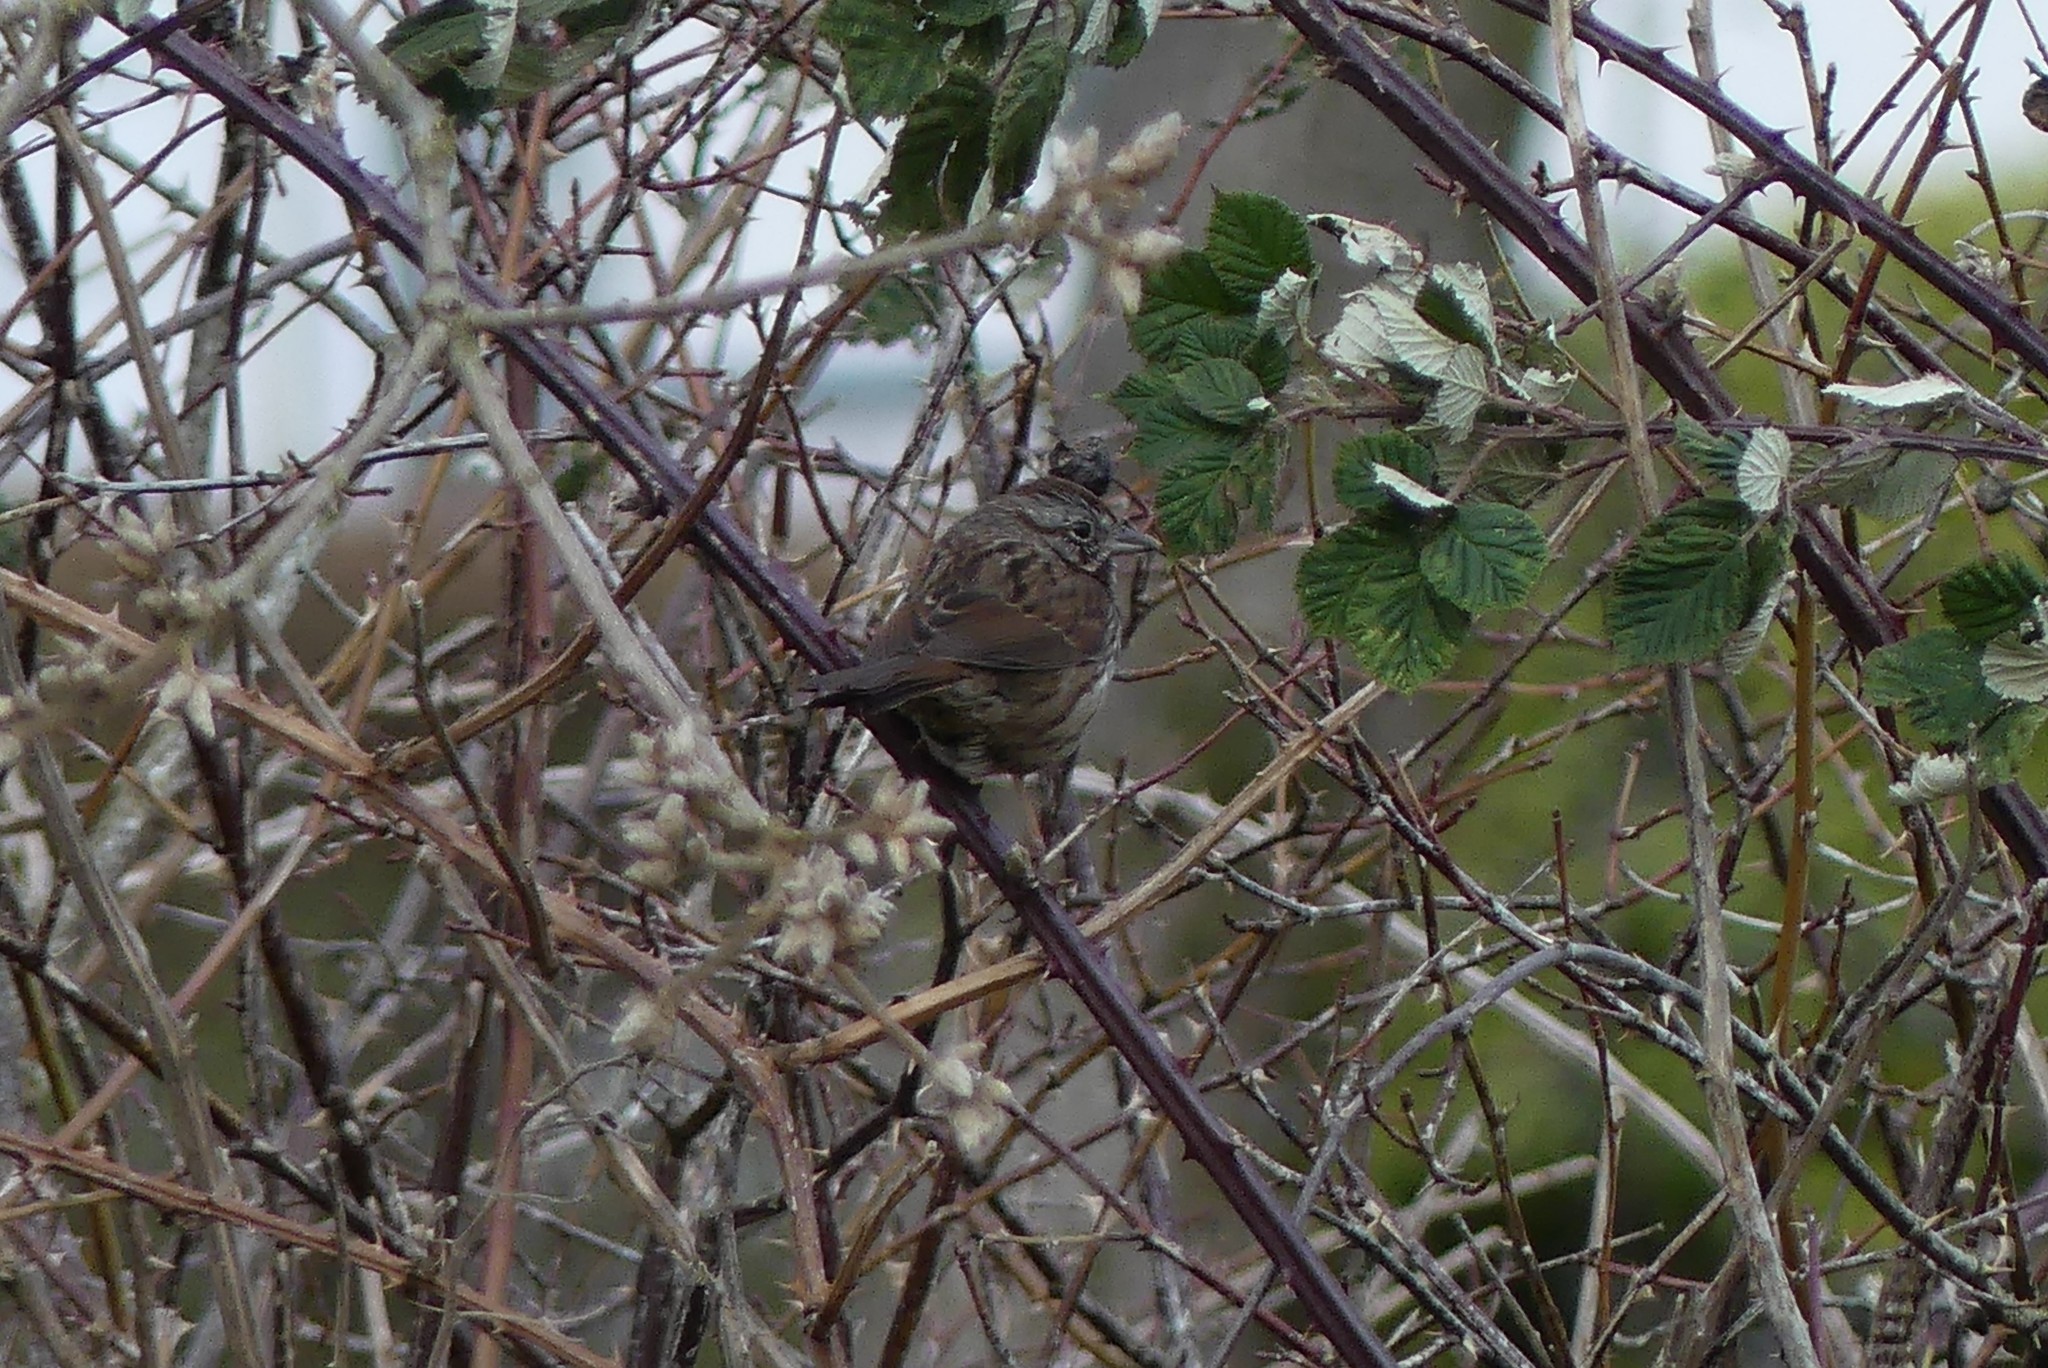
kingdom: Animalia
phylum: Chordata
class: Aves
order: Passeriformes
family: Passerellidae
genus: Melospiza
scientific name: Melospiza melodia
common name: Song sparrow
